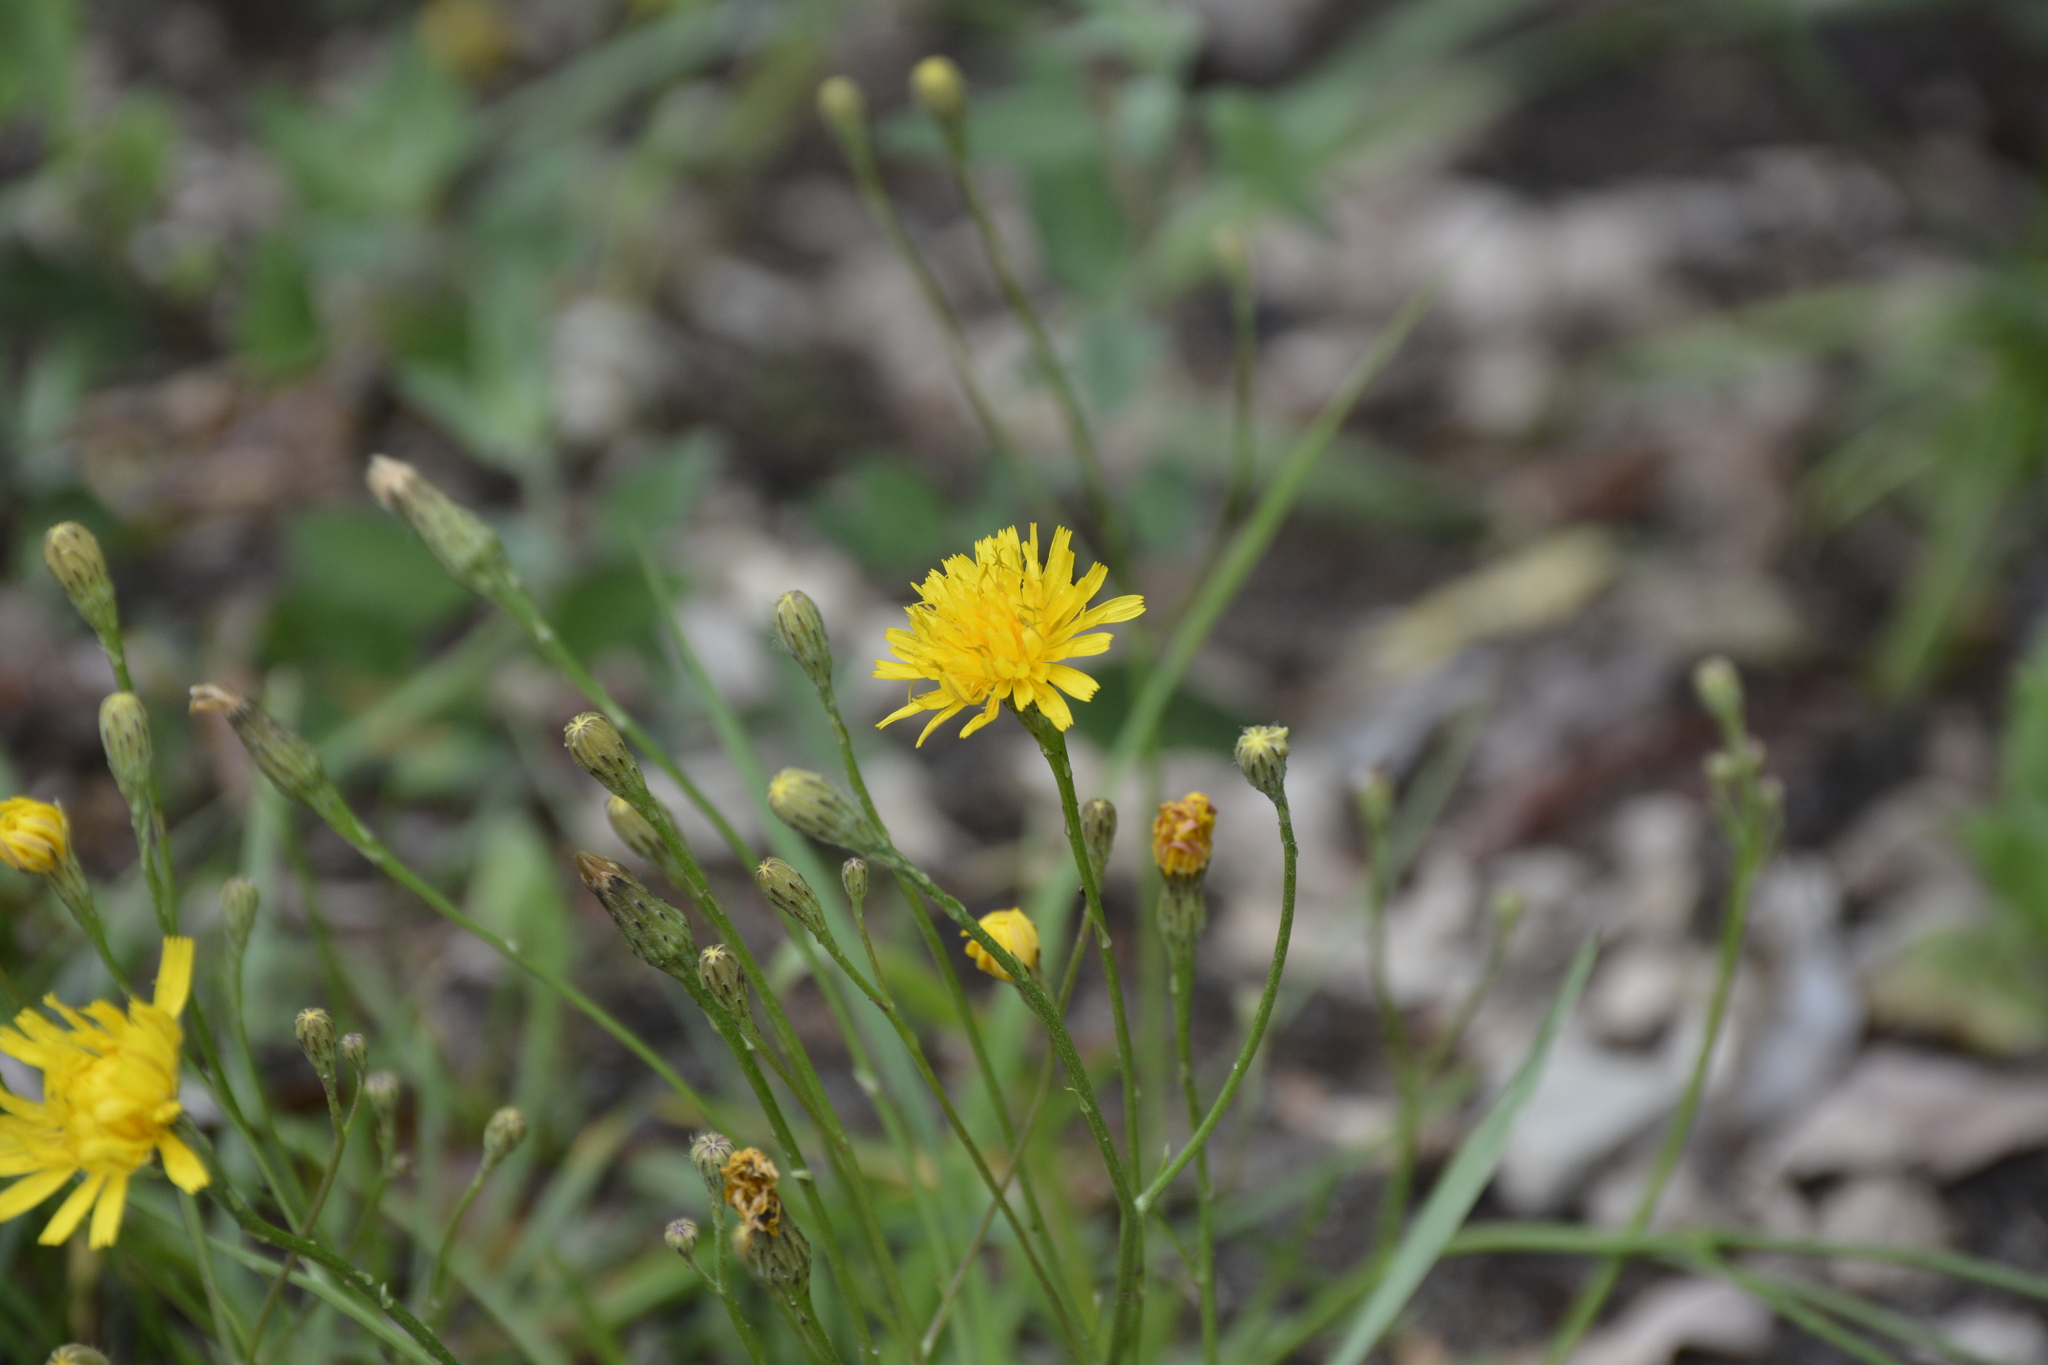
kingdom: Plantae
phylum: Tracheophyta
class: Magnoliopsida
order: Asterales
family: Asteraceae
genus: Scorzoneroides
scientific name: Scorzoneroides autumnalis
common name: Autumn hawkbit
